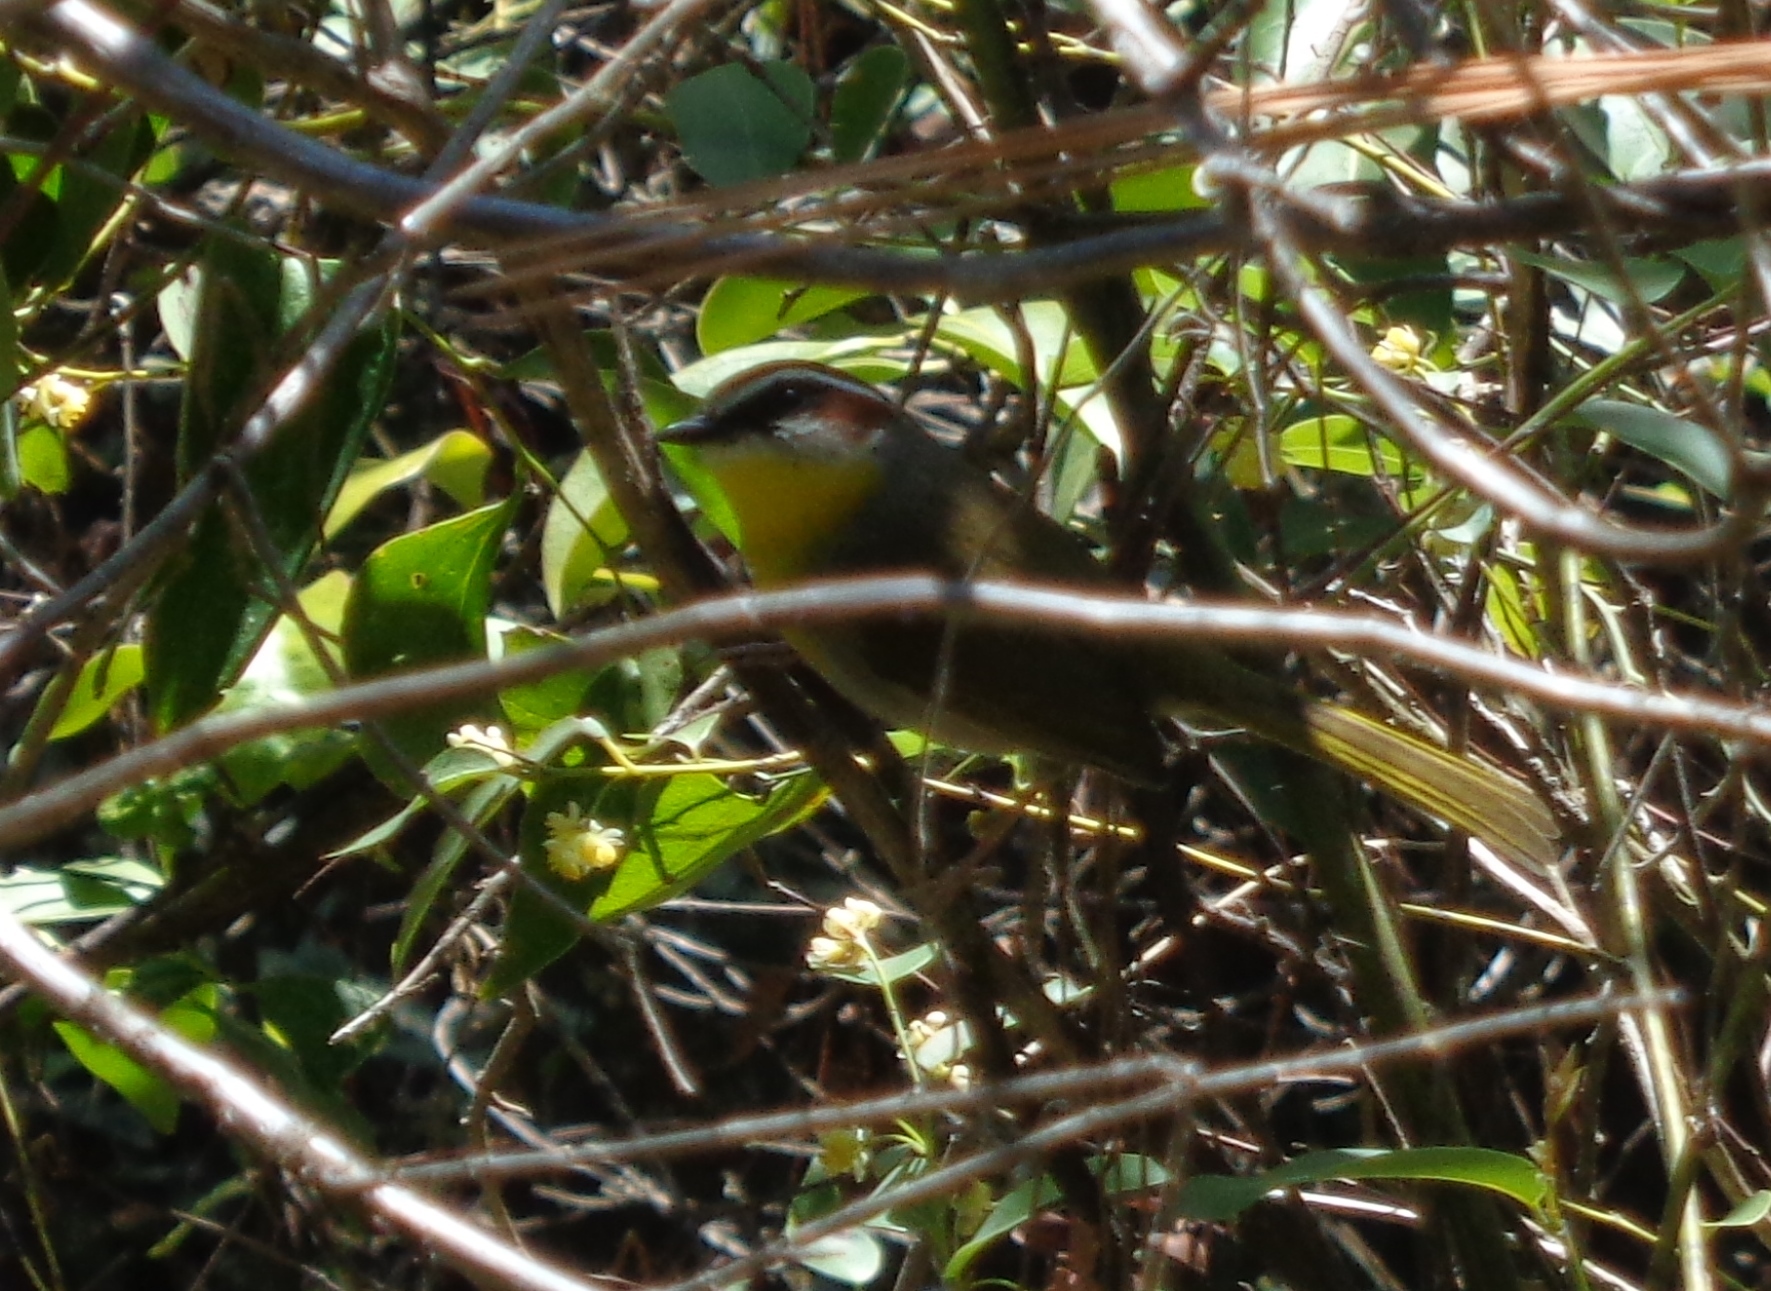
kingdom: Animalia
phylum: Chordata
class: Aves
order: Passeriformes
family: Parulidae
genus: Basileuterus
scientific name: Basileuterus rufifrons
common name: Rufous-capped warbler
